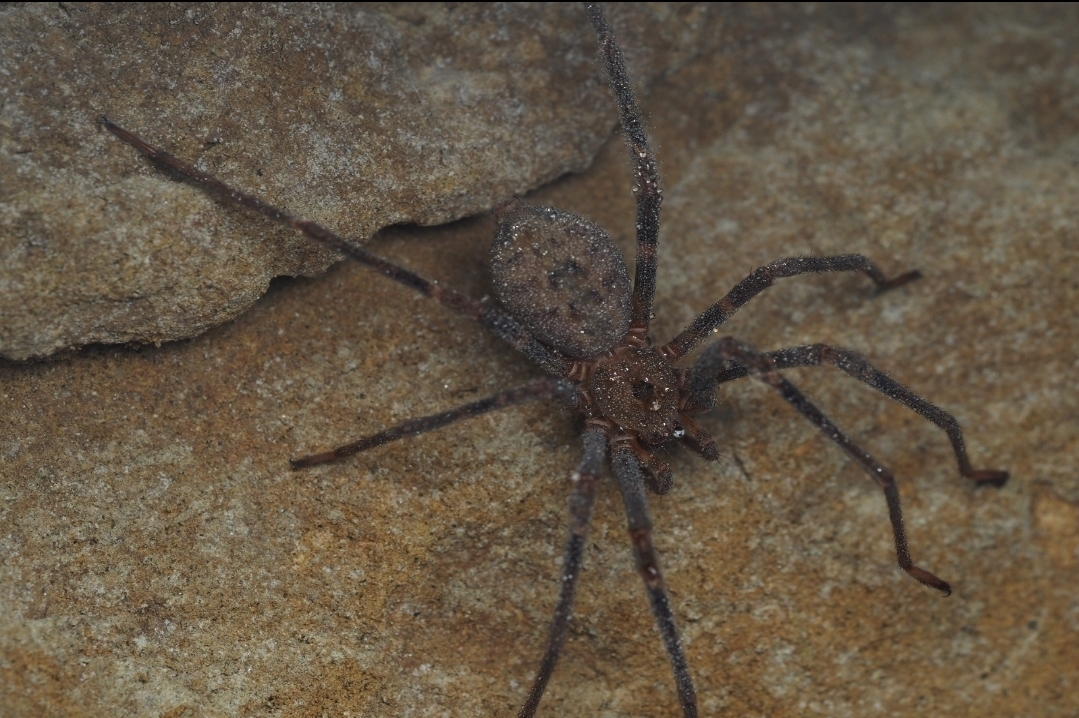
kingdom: Animalia
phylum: Arthropoda
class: Arachnida
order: Araneae
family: Gradungulidae
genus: Spelungula
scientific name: Spelungula cavernicola
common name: Nelson cave spider
